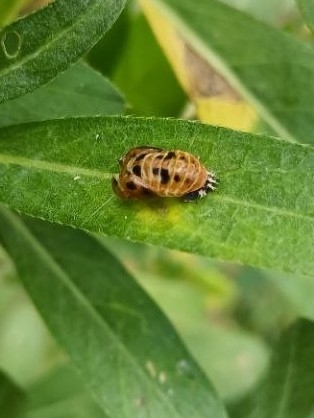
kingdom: Animalia
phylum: Arthropoda
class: Insecta
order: Coleoptera
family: Coccinellidae
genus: Harmonia
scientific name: Harmonia axyridis
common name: Harlequin ladybird
